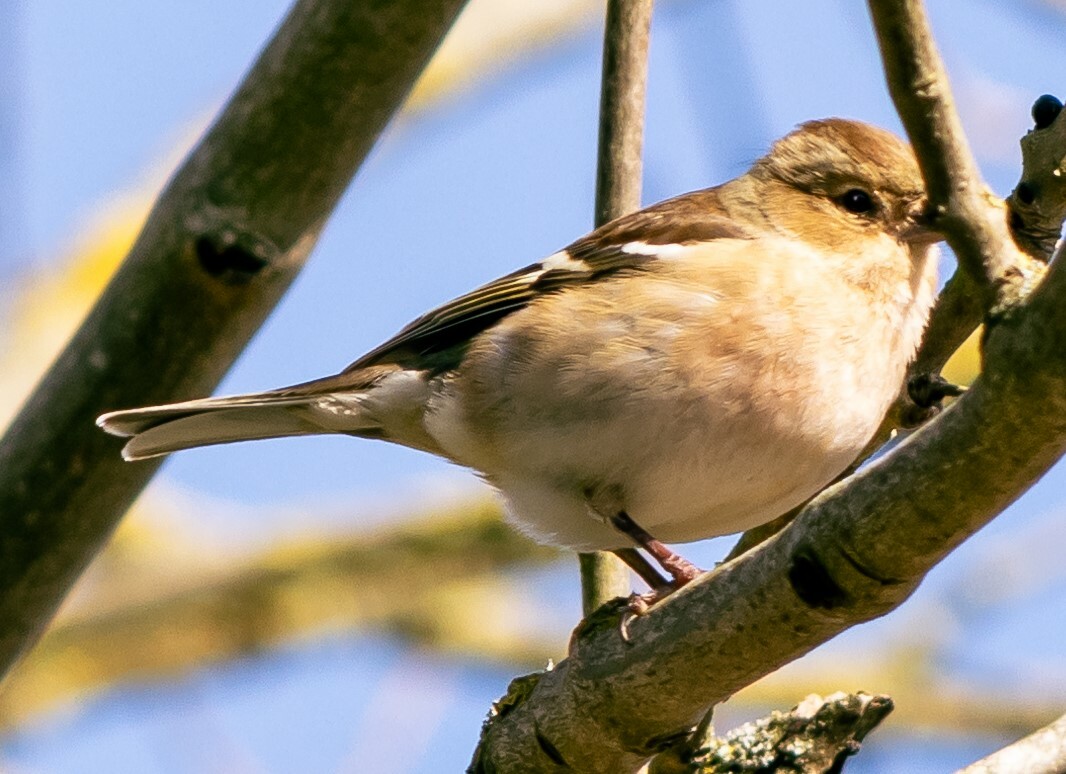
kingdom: Animalia
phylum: Chordata
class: Aves
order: Passeriformes
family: Fringillidae
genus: Fringilla
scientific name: Fringilla coelebs
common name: Common chaffinch
